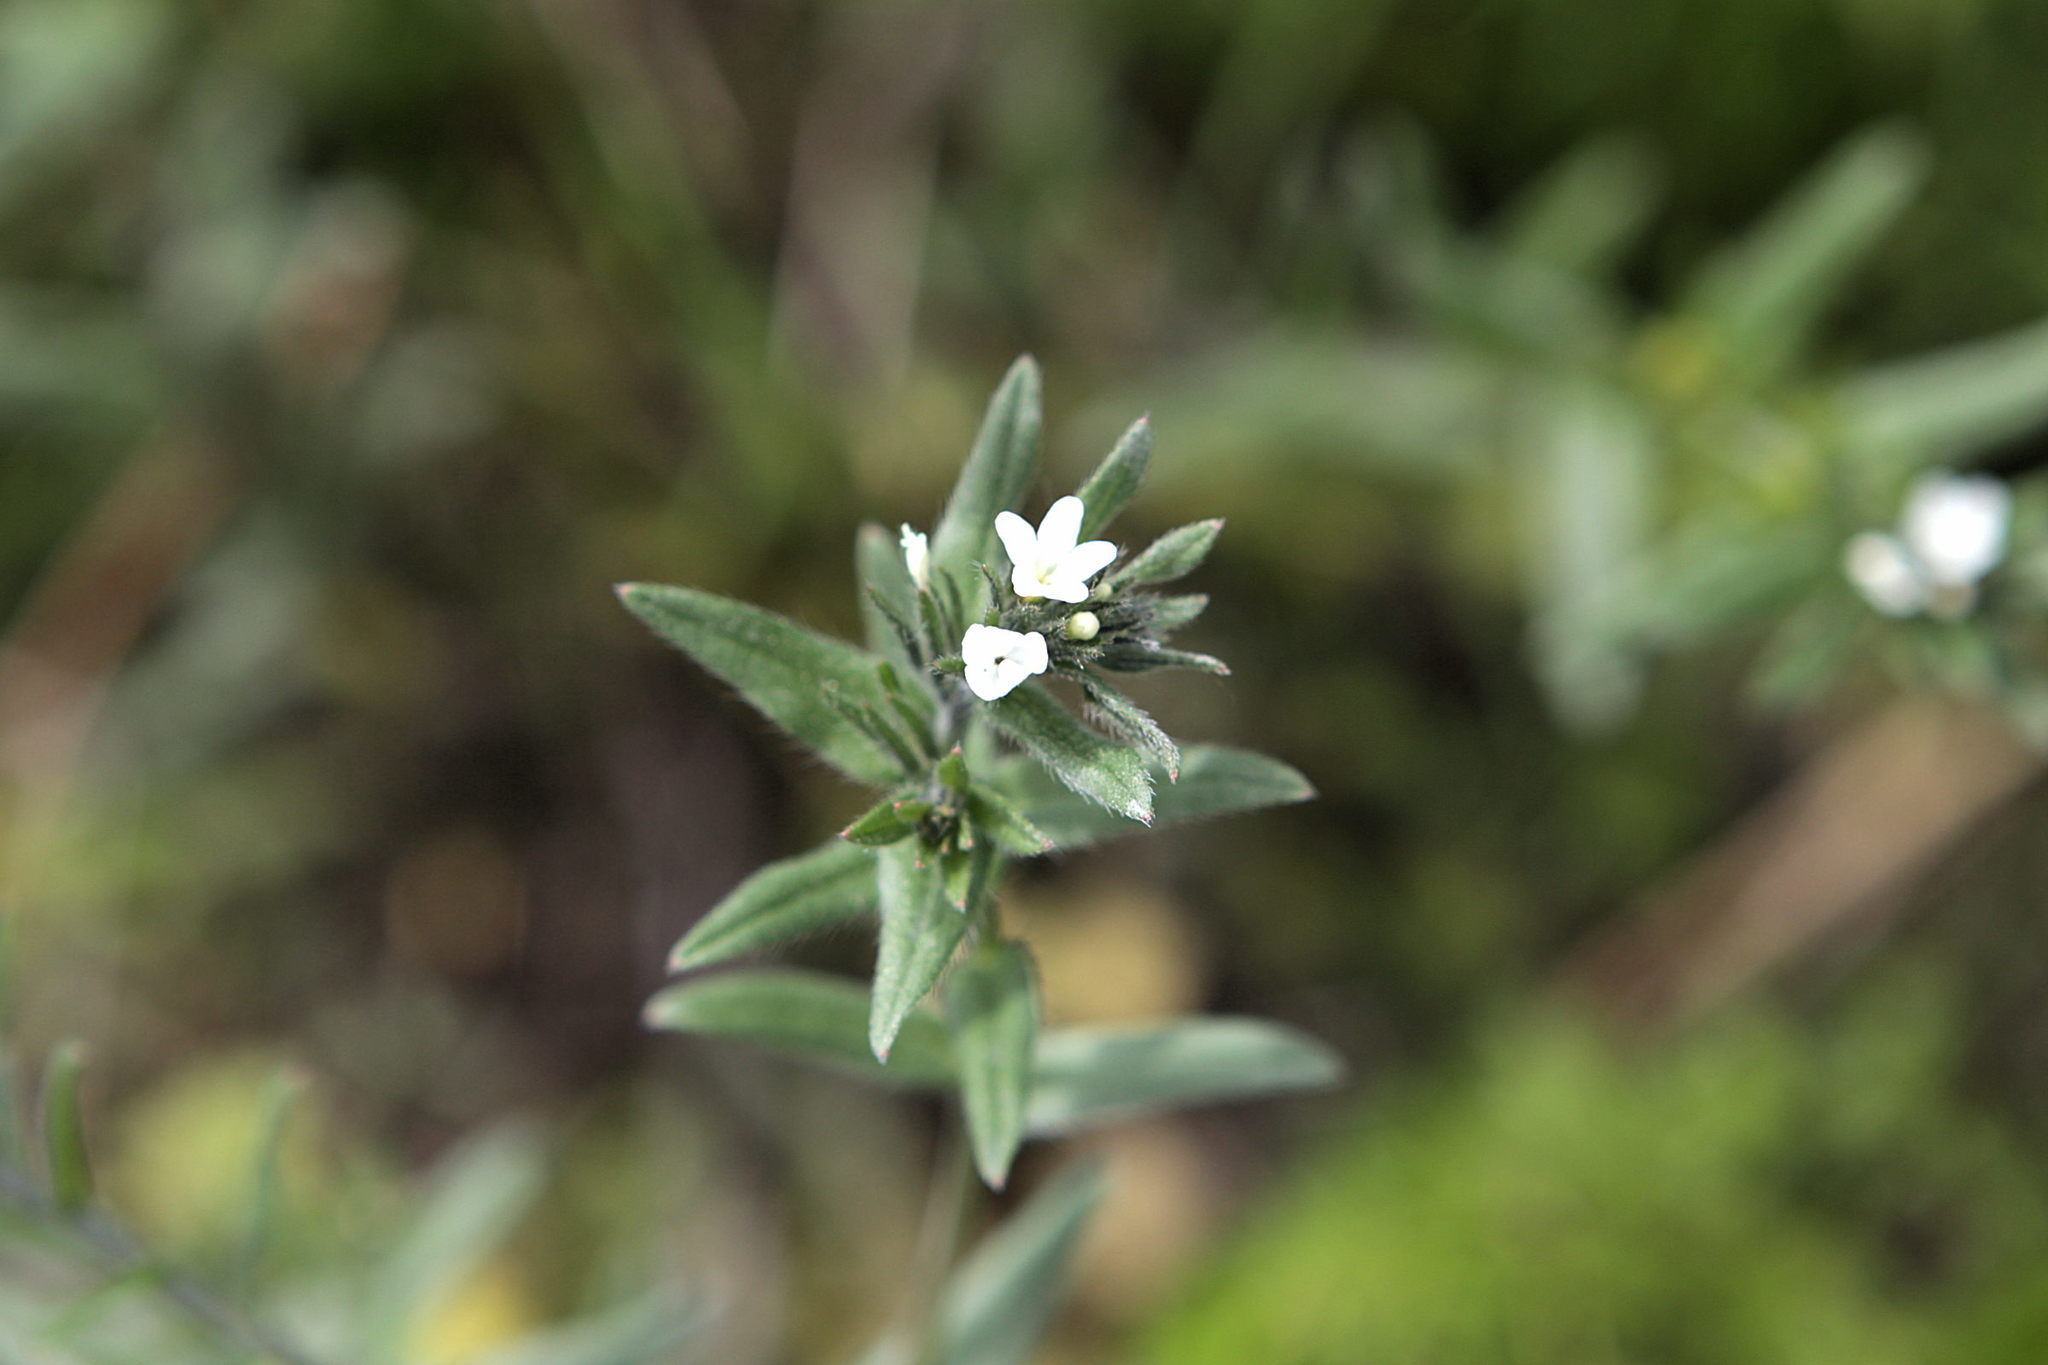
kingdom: Plantae
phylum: Tracheophyta
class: Magnoliopsida
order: Boraginales
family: Boraginaceae
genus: Lithospermum
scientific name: Lithospermum officinale
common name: Common gromwell
